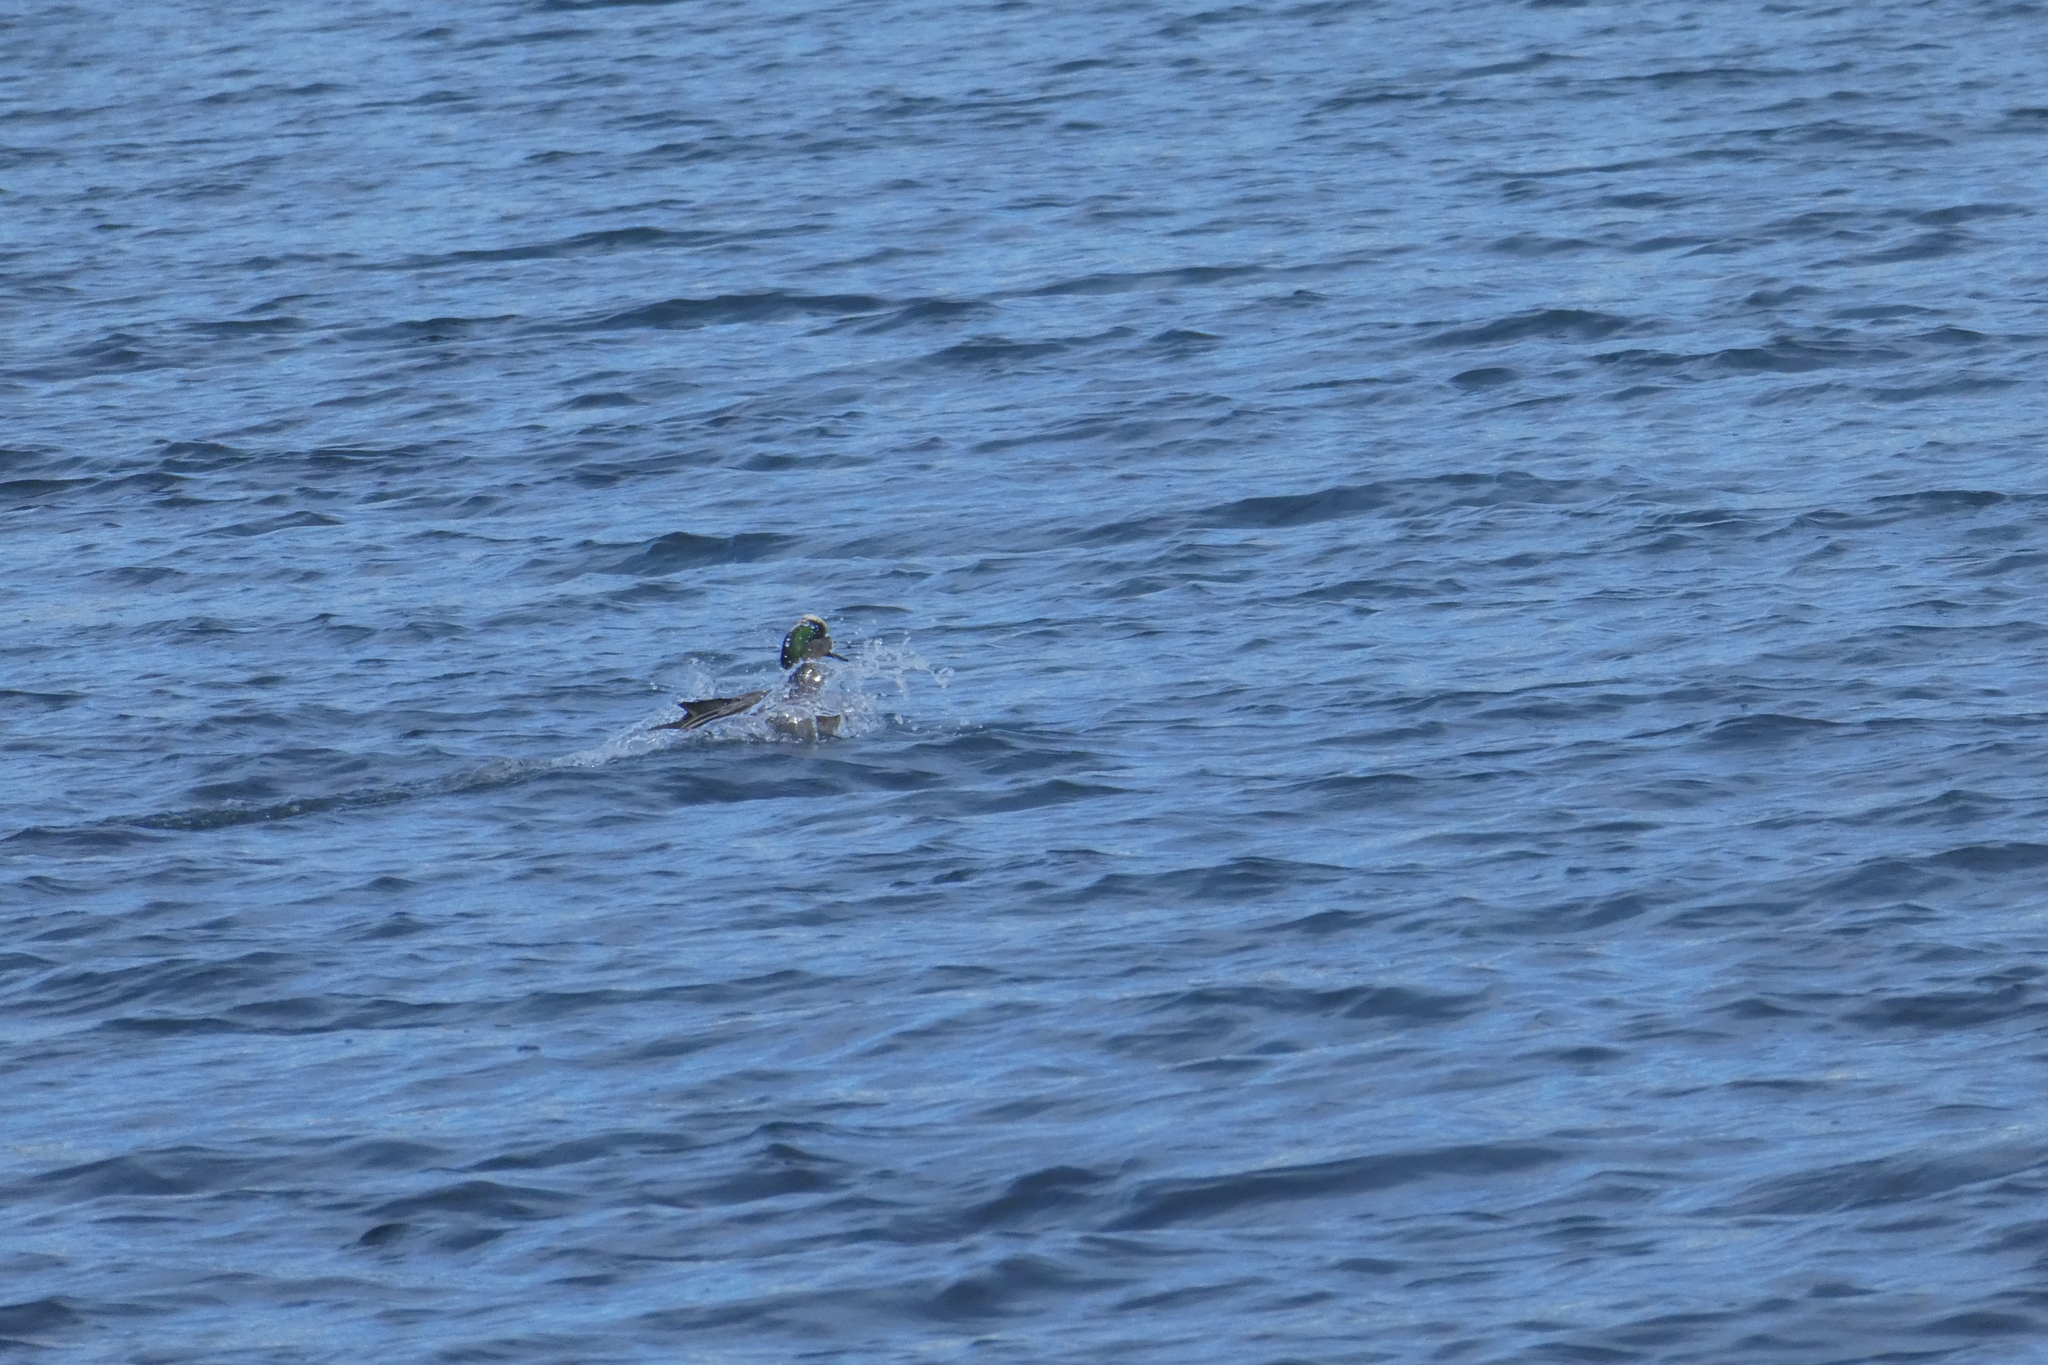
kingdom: Animalia
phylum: Chordata
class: Aves
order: Anseriformes
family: Anatidae
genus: Mareca
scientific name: Mareca americana
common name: American wigeon
